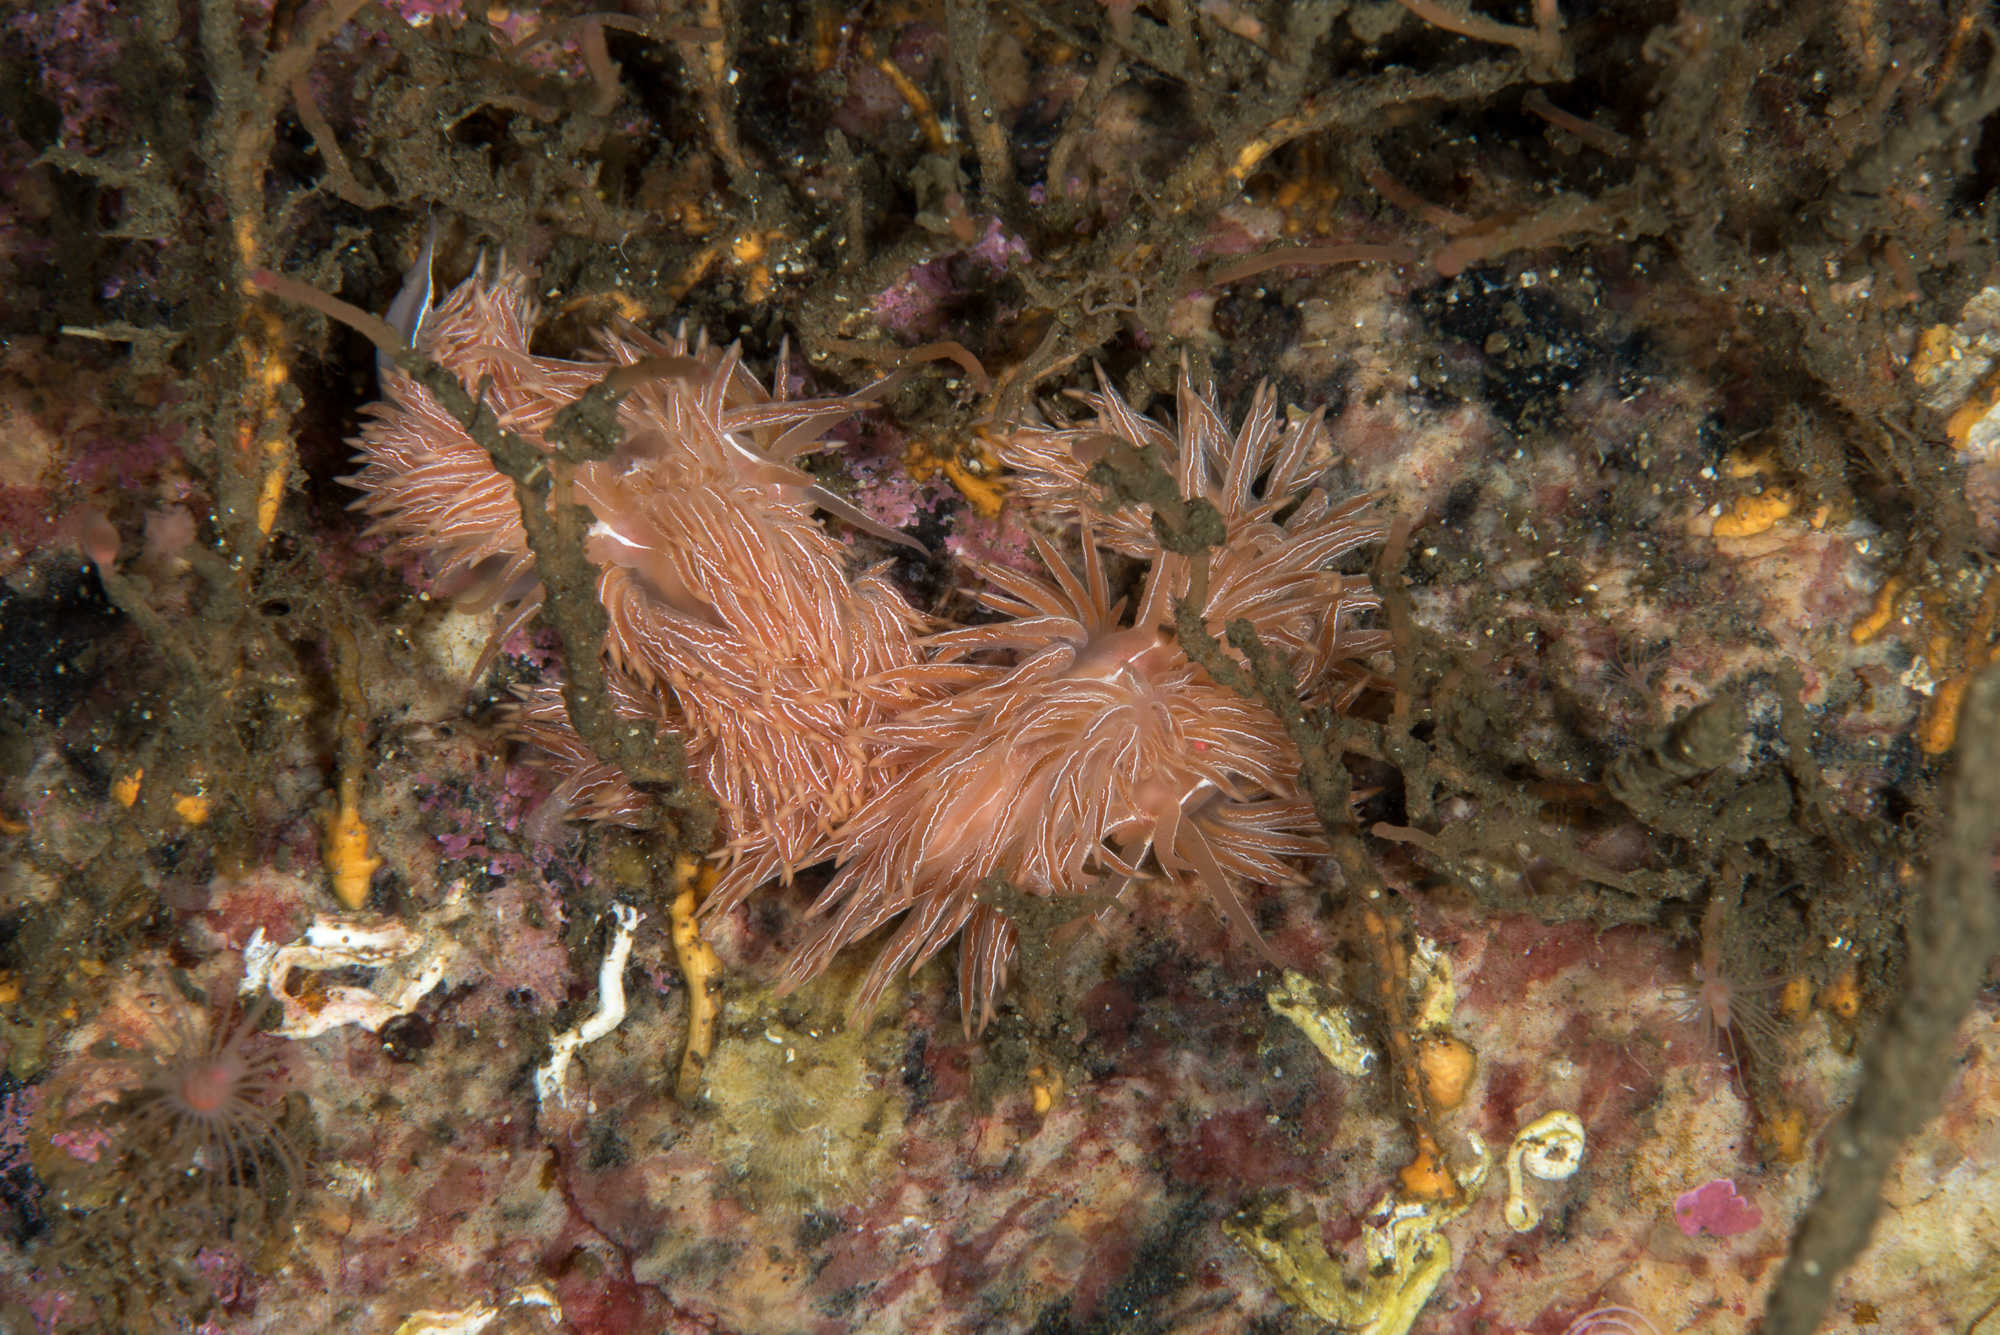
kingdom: Animalia
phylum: Mollusca
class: Gastropoda
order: Nudibranchia
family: Coryphellidae
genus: Coryphella
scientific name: Coryphella chriskaugei
